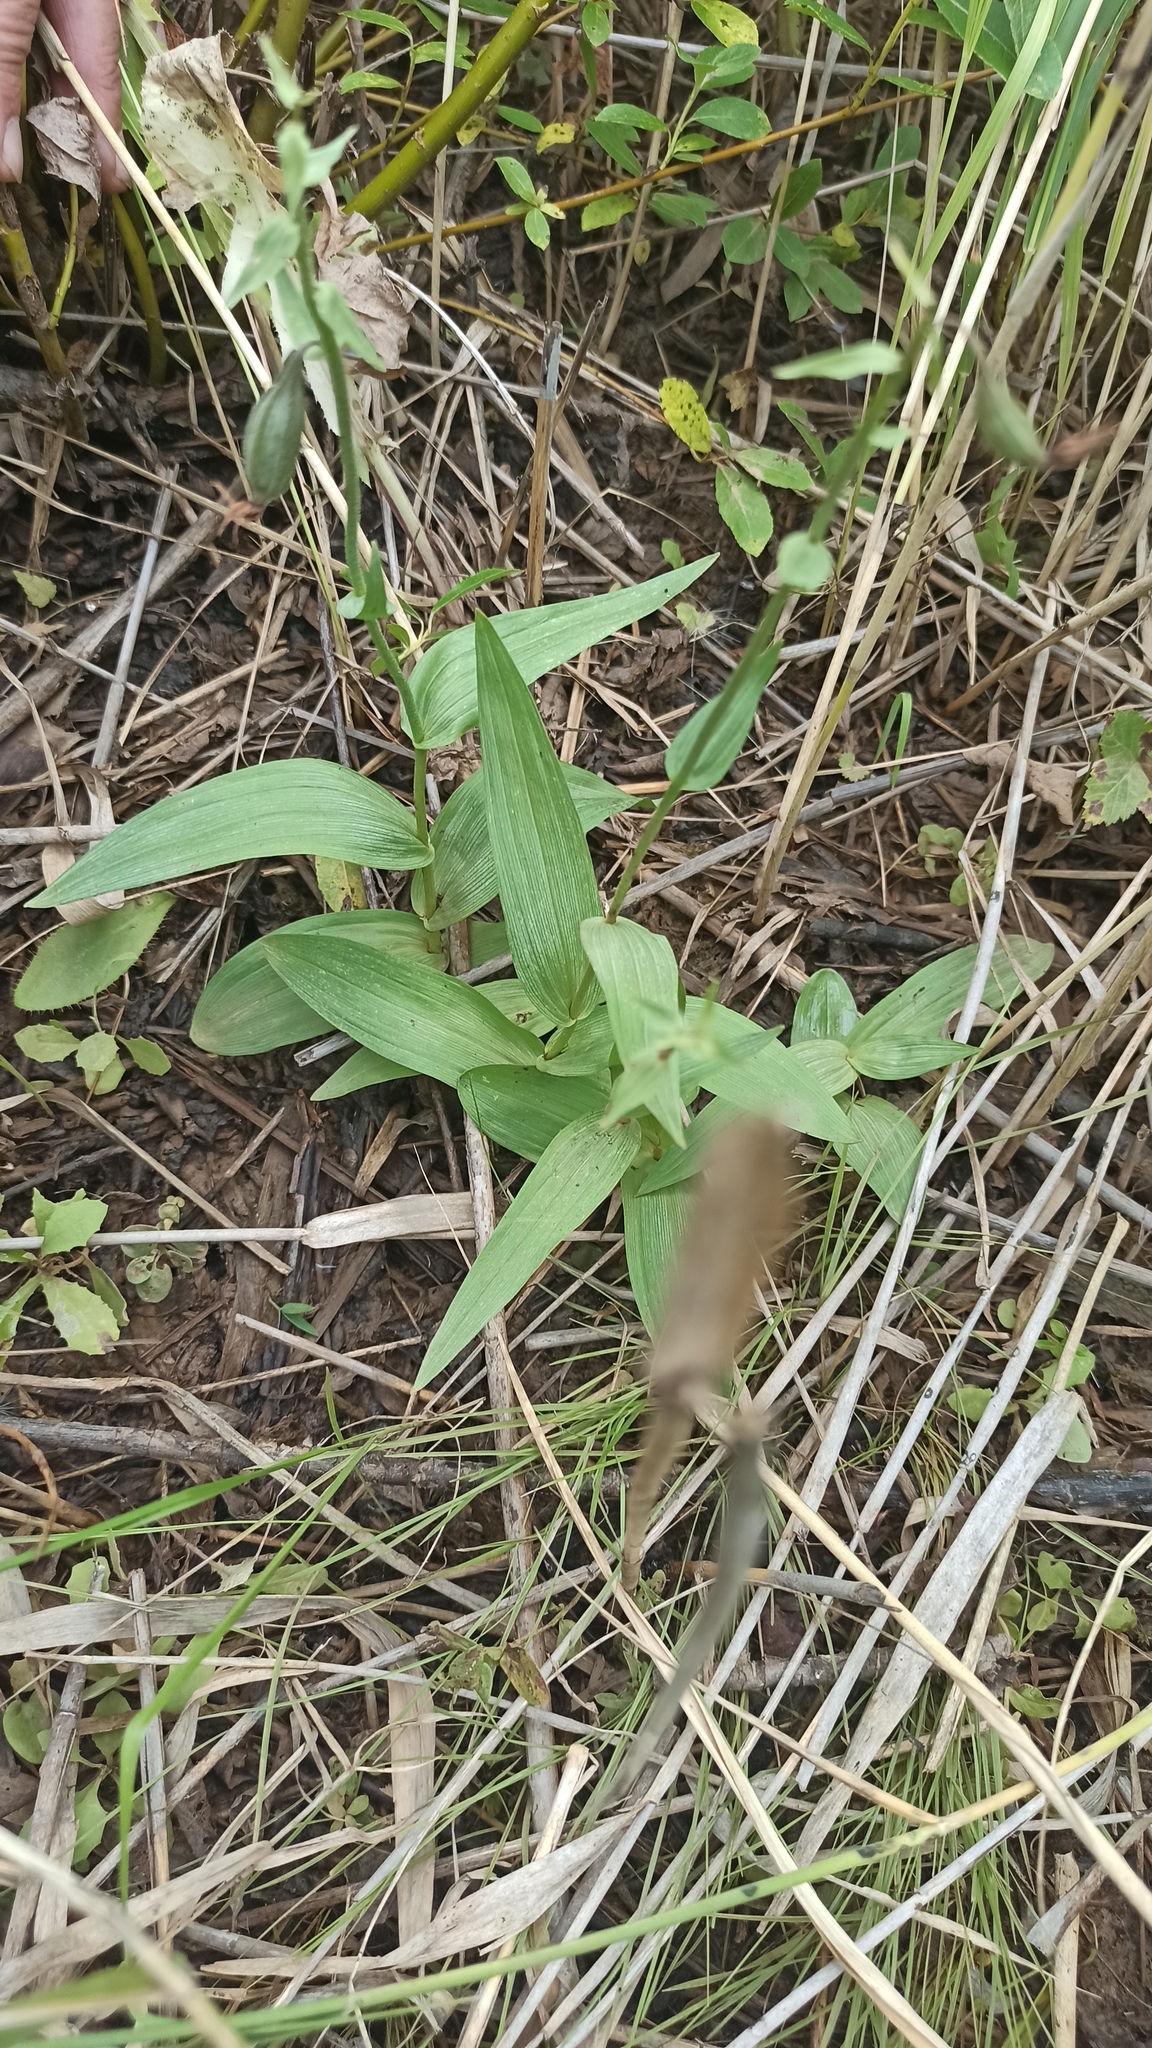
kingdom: Plantae
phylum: Tracheophyta
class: Liliopsida
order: Asparagales
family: Orchidaceae
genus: Epipactis
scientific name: Epipactis palustris
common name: Marsh helleborine
